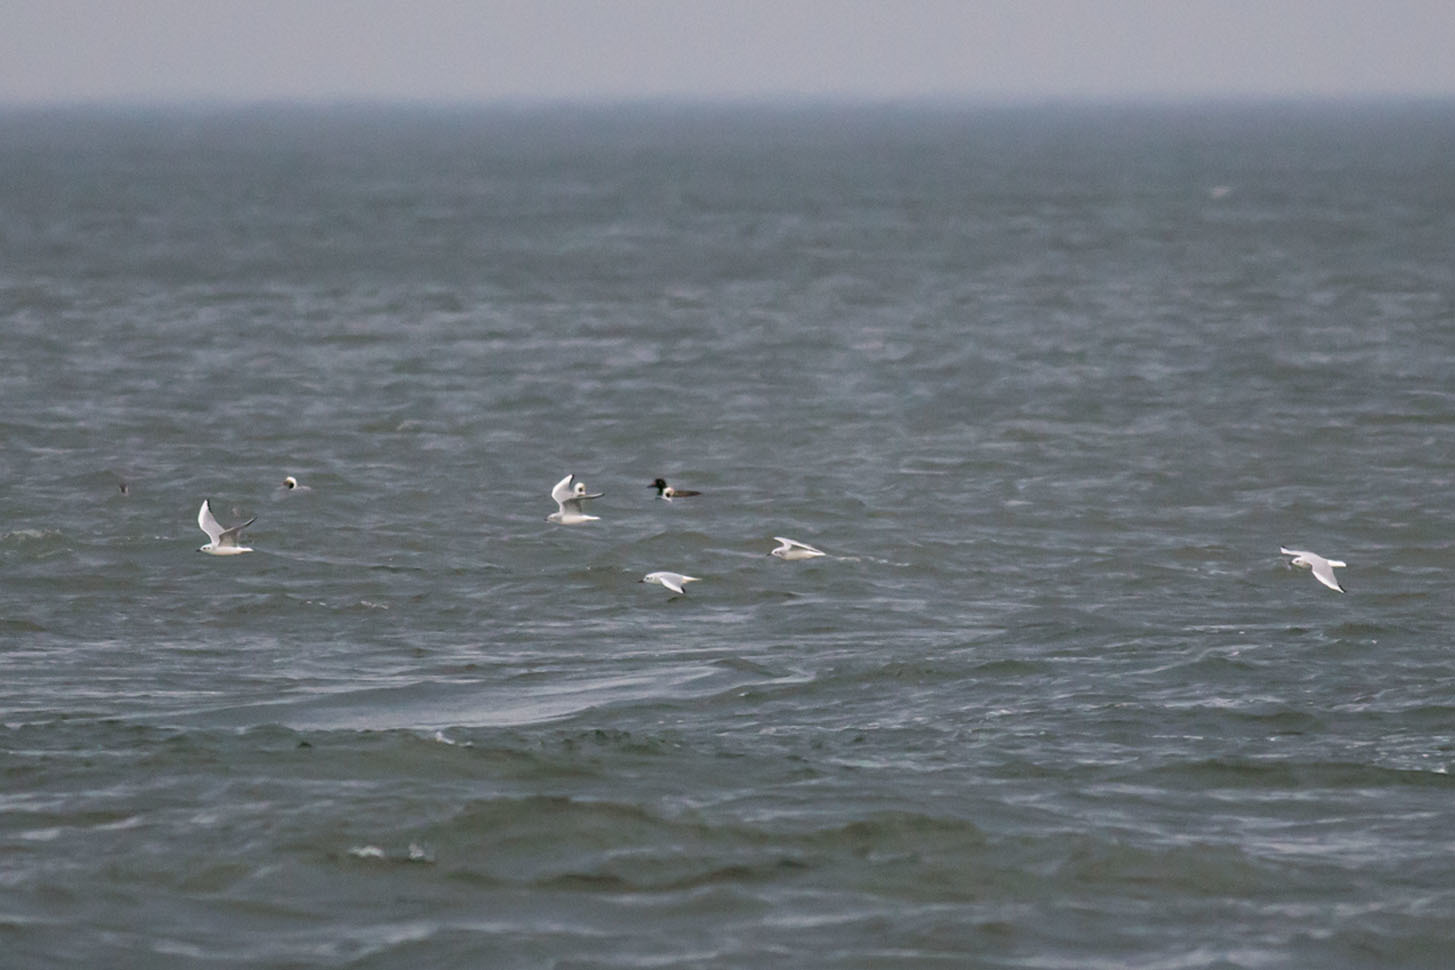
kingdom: Animalia
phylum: Chordata
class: Aves
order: Charadriiformes
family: Laridae
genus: Chroicocephalus
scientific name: Chroicocephalus philadelphia
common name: Bonaparte's gull
